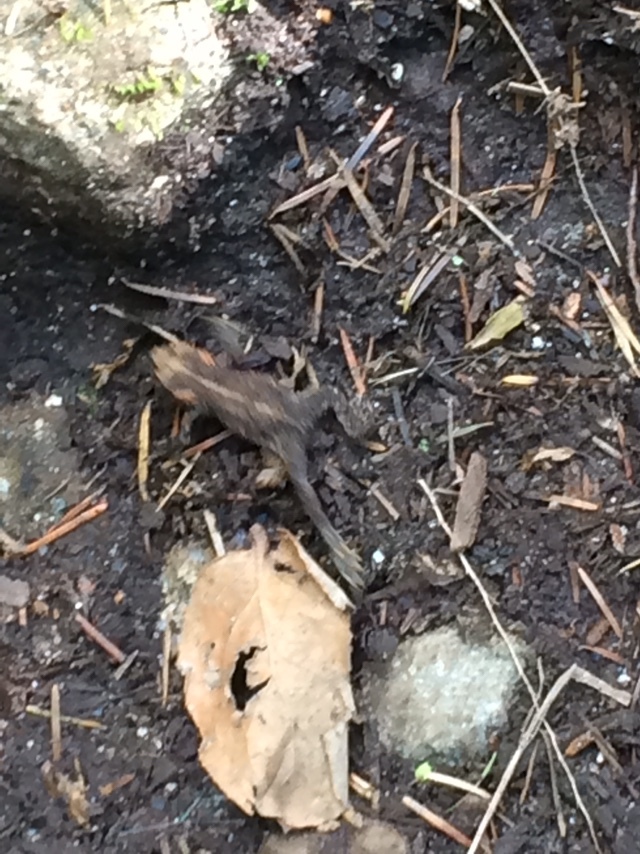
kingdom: Animalia
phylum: Chordata
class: Amphibia
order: Anura
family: Bufonidae
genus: Anaxyrus
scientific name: Anaxyrus boreas
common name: Western toad
